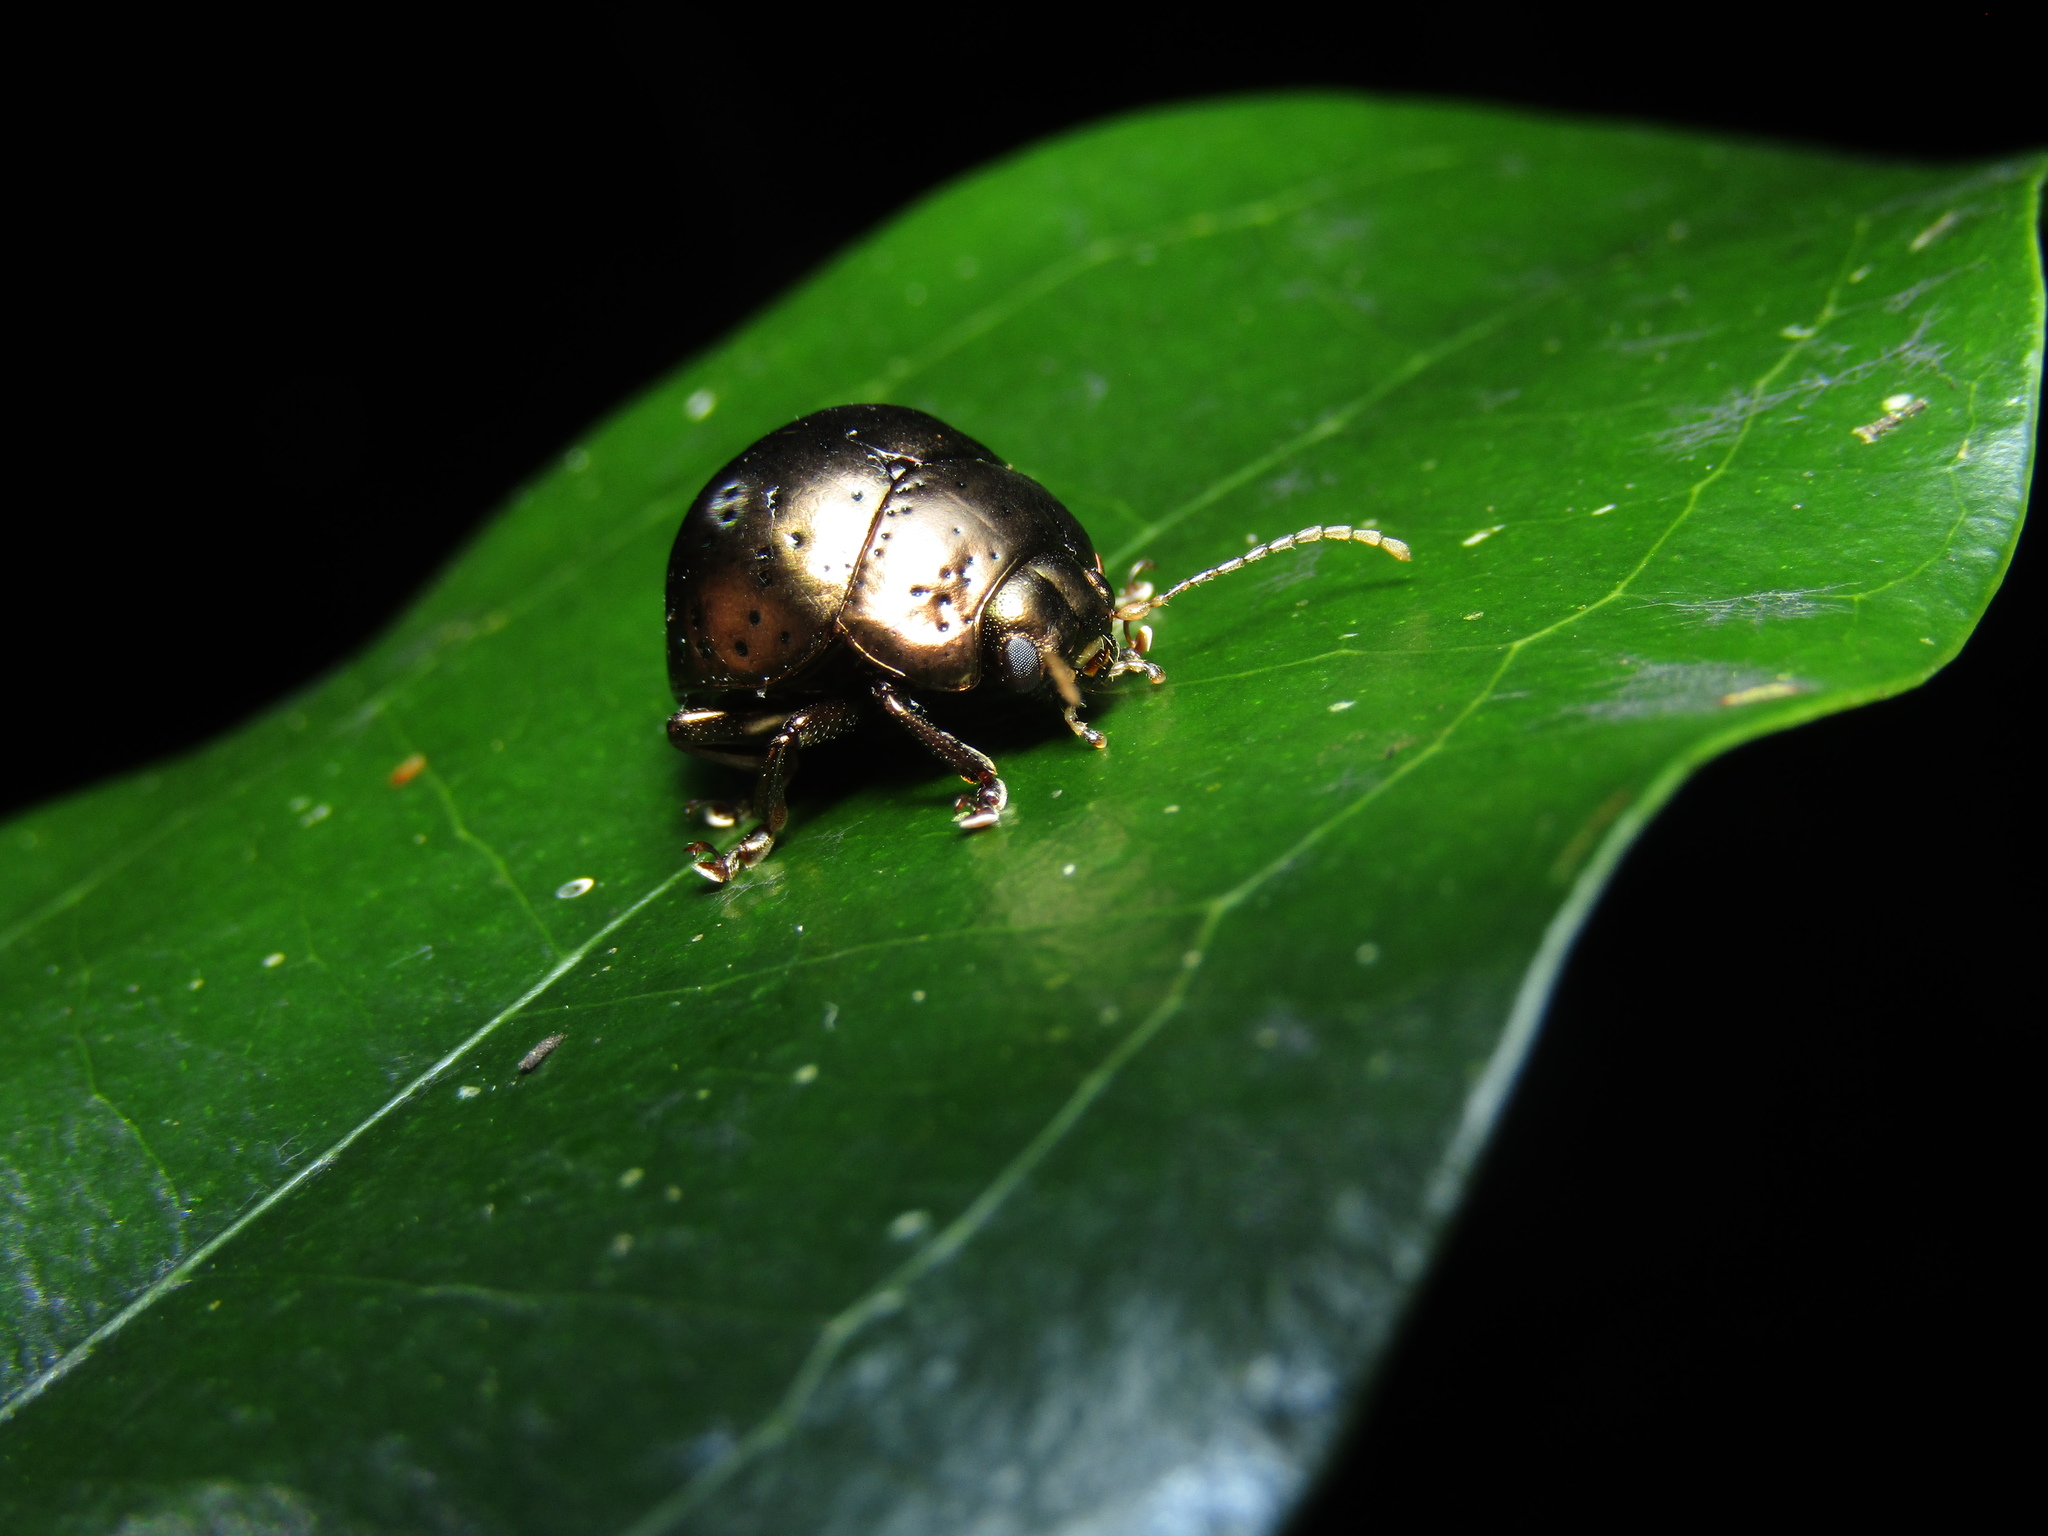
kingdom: Animalia
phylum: Arthropoda
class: Insecta
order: Coleoptera
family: Chrysomelidae
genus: Callidemum
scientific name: Callidemum
